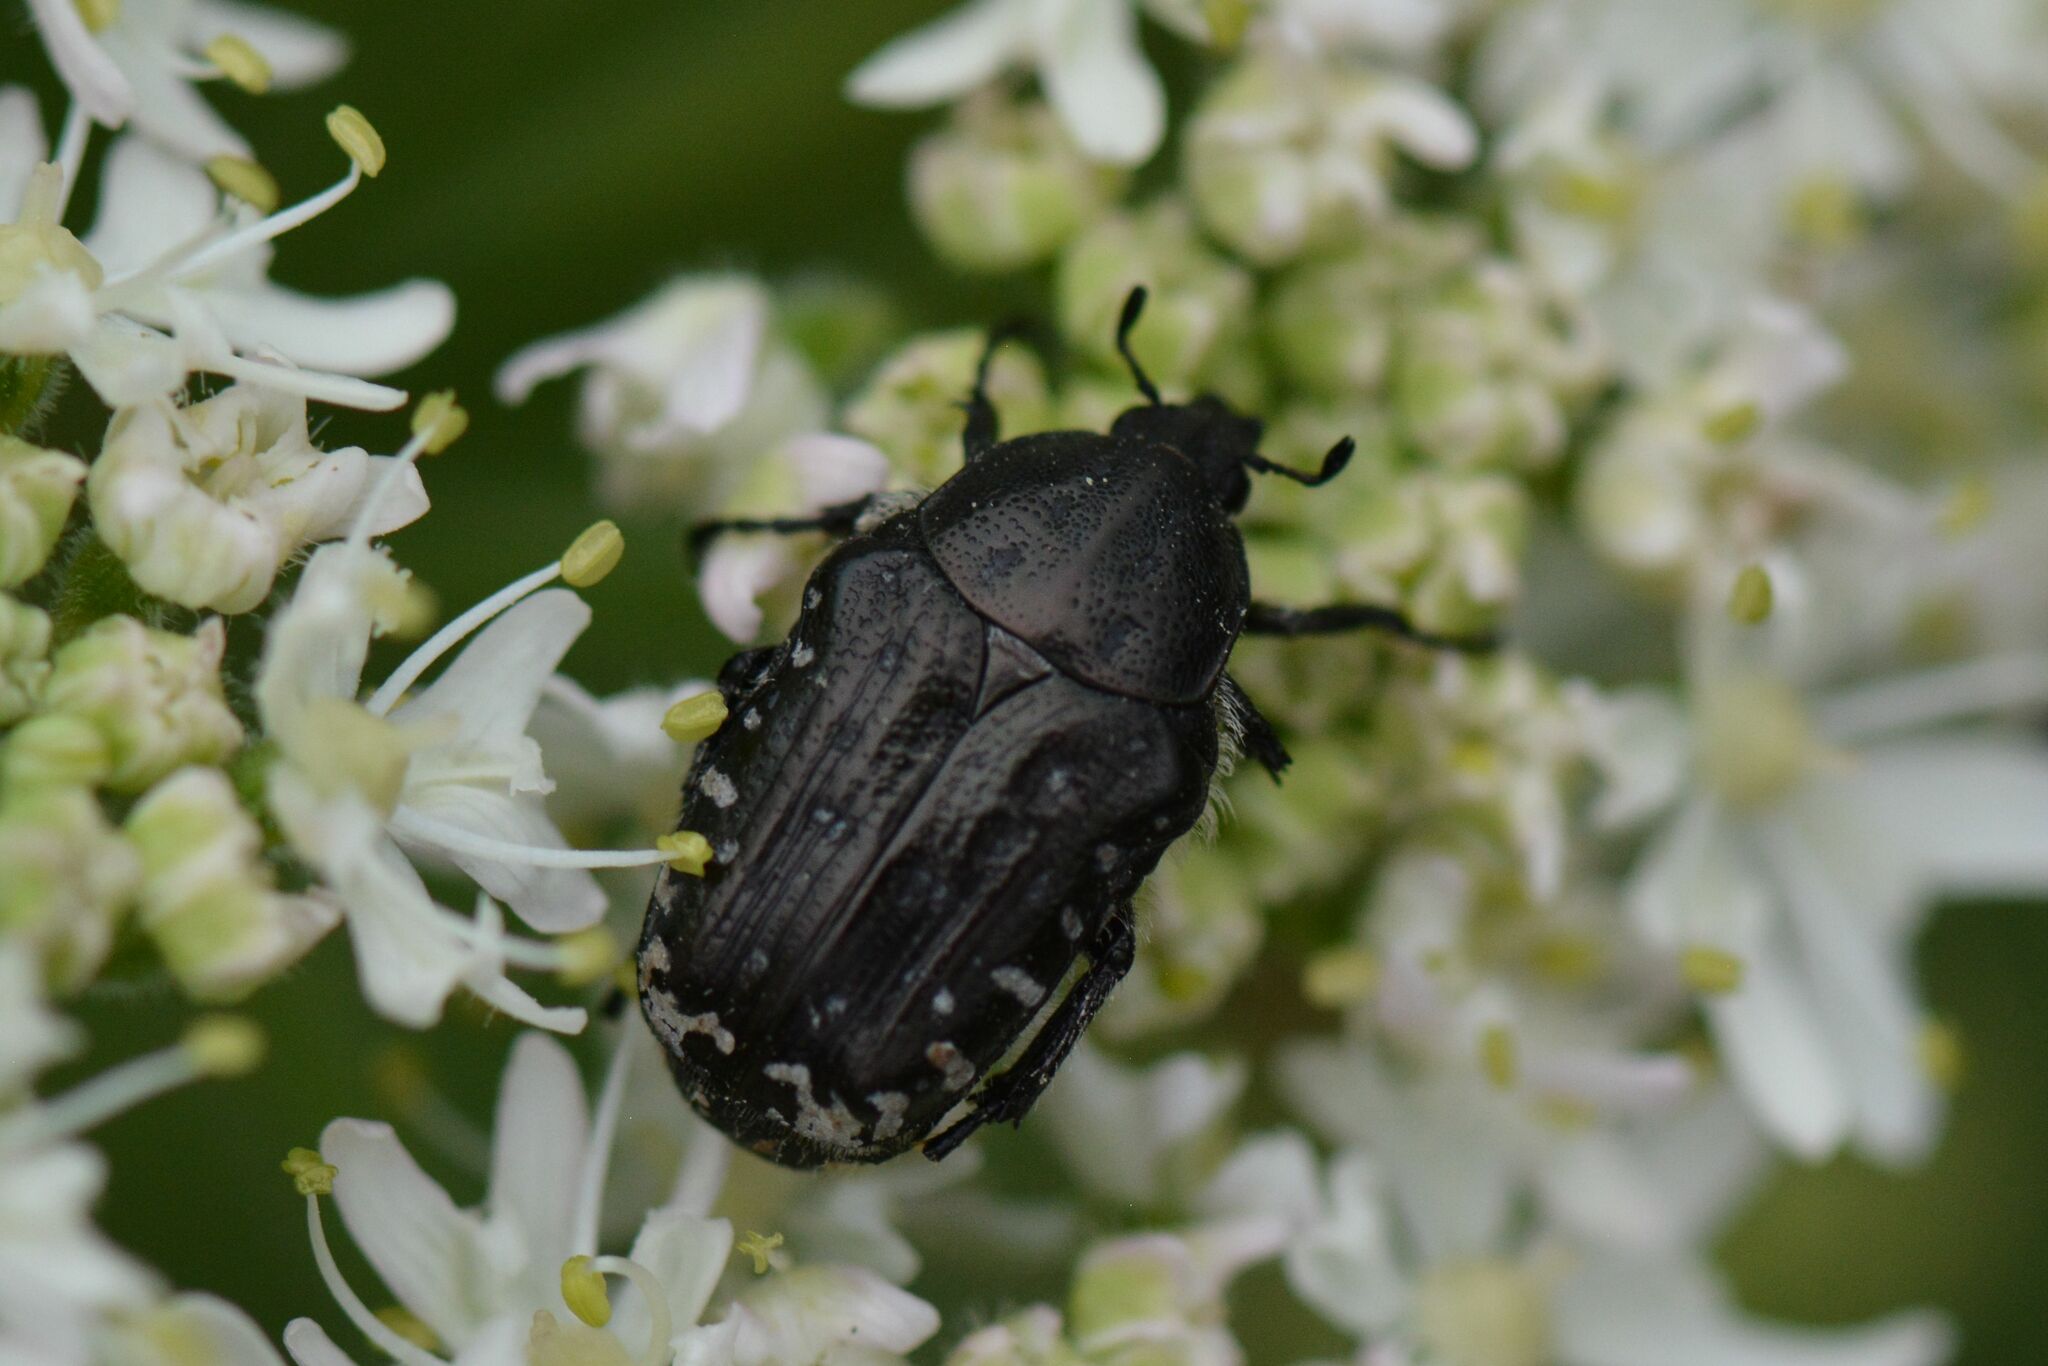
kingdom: Animalia
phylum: Arthropoda
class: Insecta
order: Coleoptera
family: Scarabaeidae
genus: Oxythyrea
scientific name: Oxythyrea funesta
